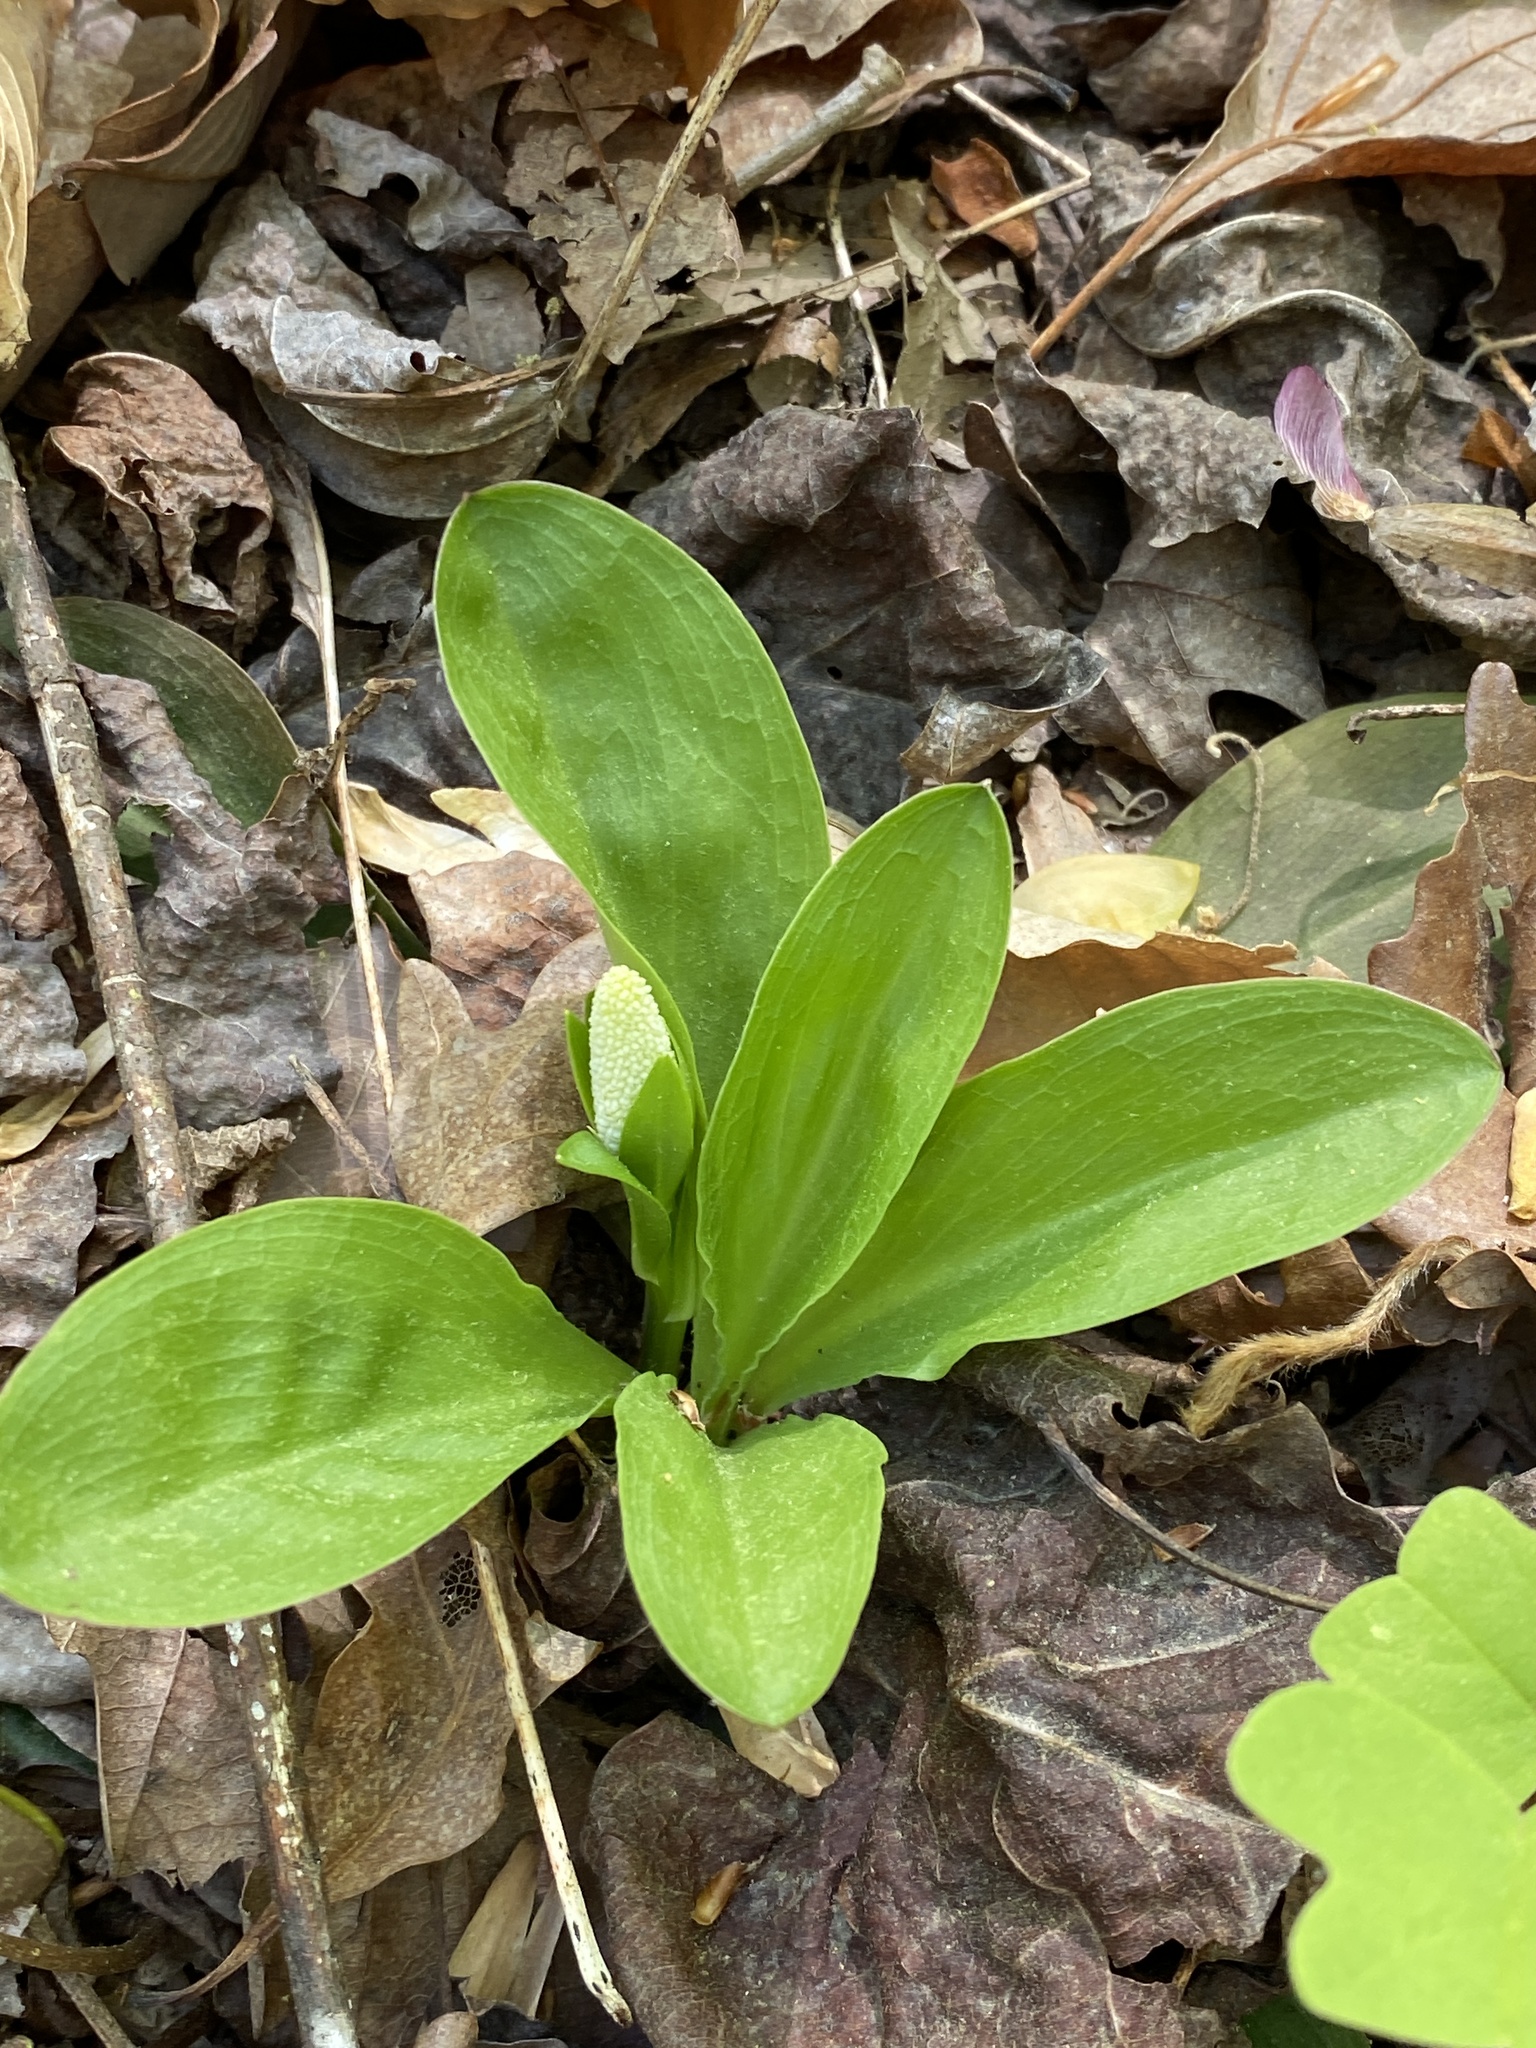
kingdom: Plantae
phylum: Tracheophyta
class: Liliopsida
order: Liliales
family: Melanthiaceae
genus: Chamaelirium
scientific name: Chamaelirium luteum
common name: Fairy-wand
